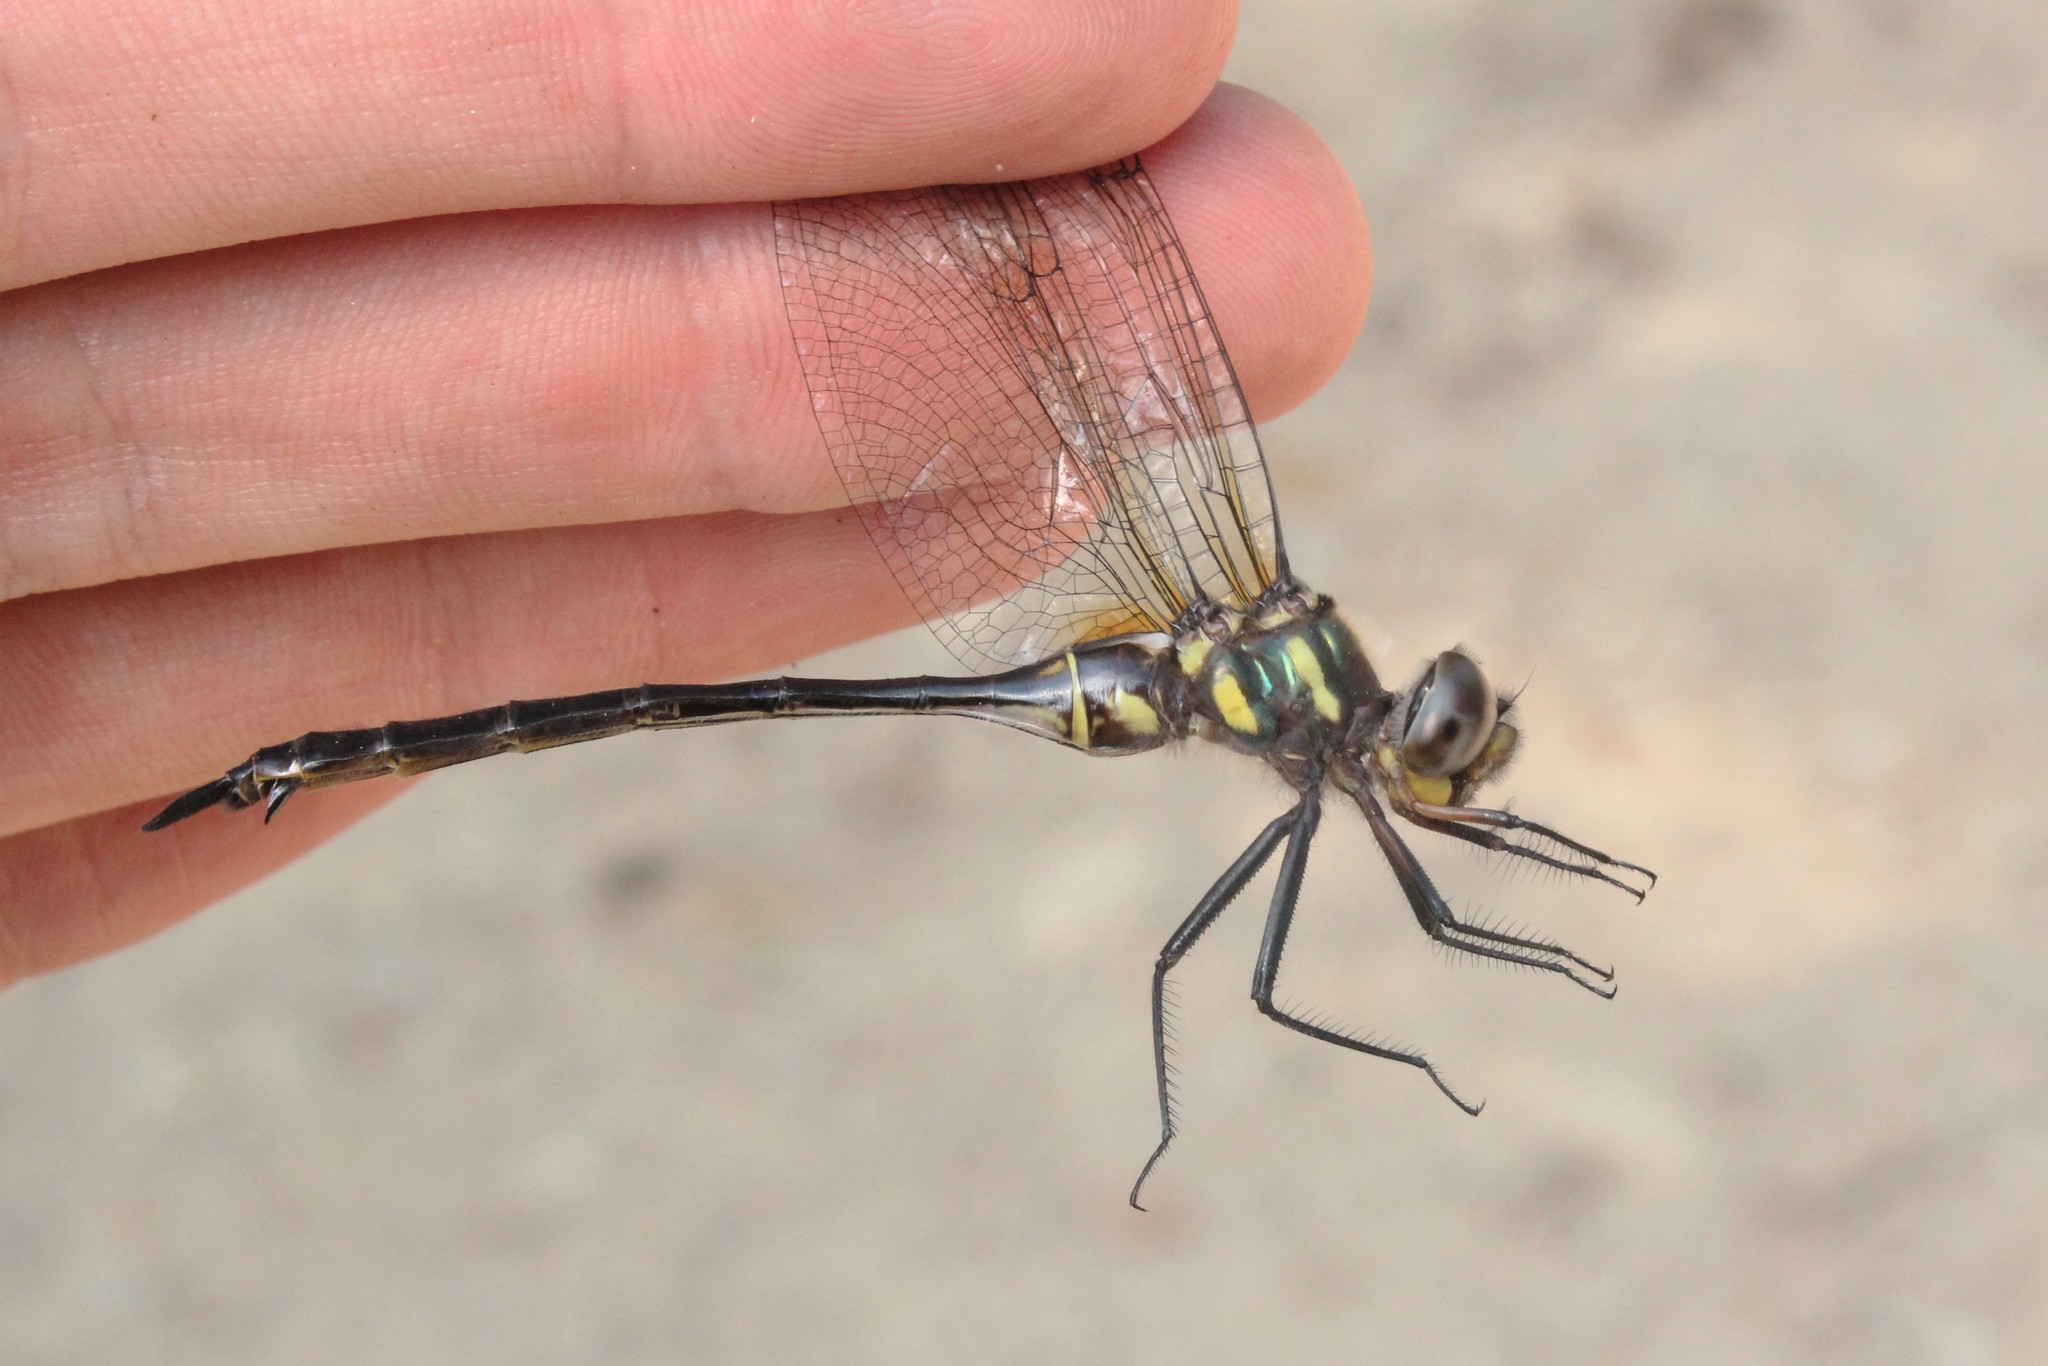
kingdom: Animalia
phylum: Arthropoda
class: Insecta
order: Odonata
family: Corduliidae
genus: Somatochlora
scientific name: Somatochlora tenebrosa
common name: Clamp-tipped emerald
